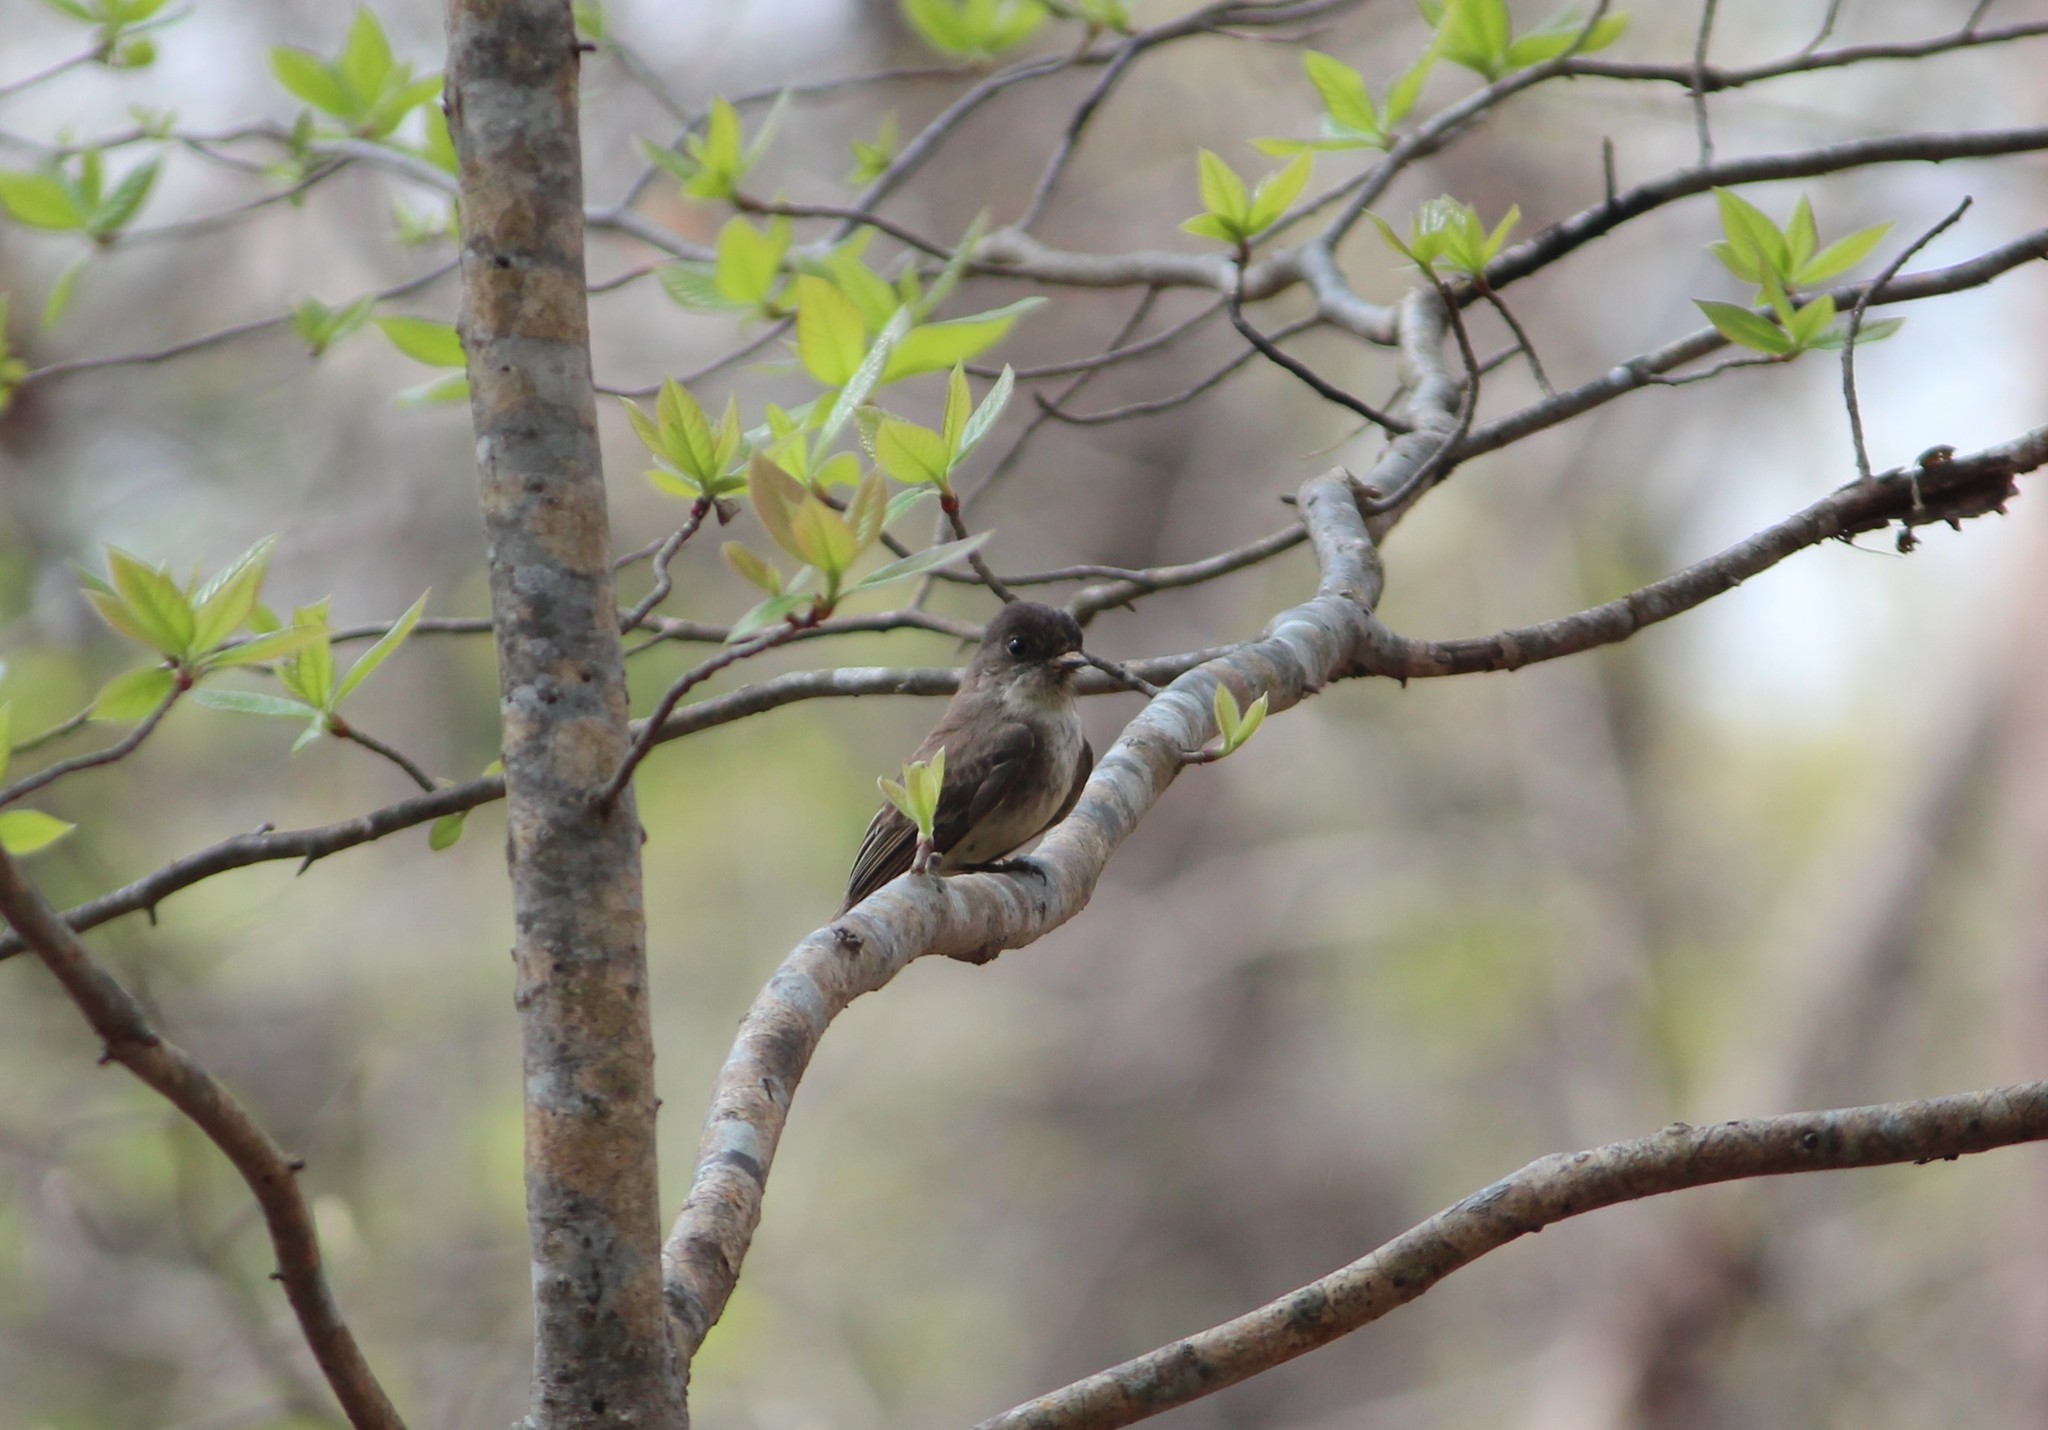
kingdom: Animalia
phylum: Chordata
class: Aves
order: Passeriformes
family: Tyrannidae
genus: Sayornis
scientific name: Sayornis phoebe
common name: Eastern phoebe
